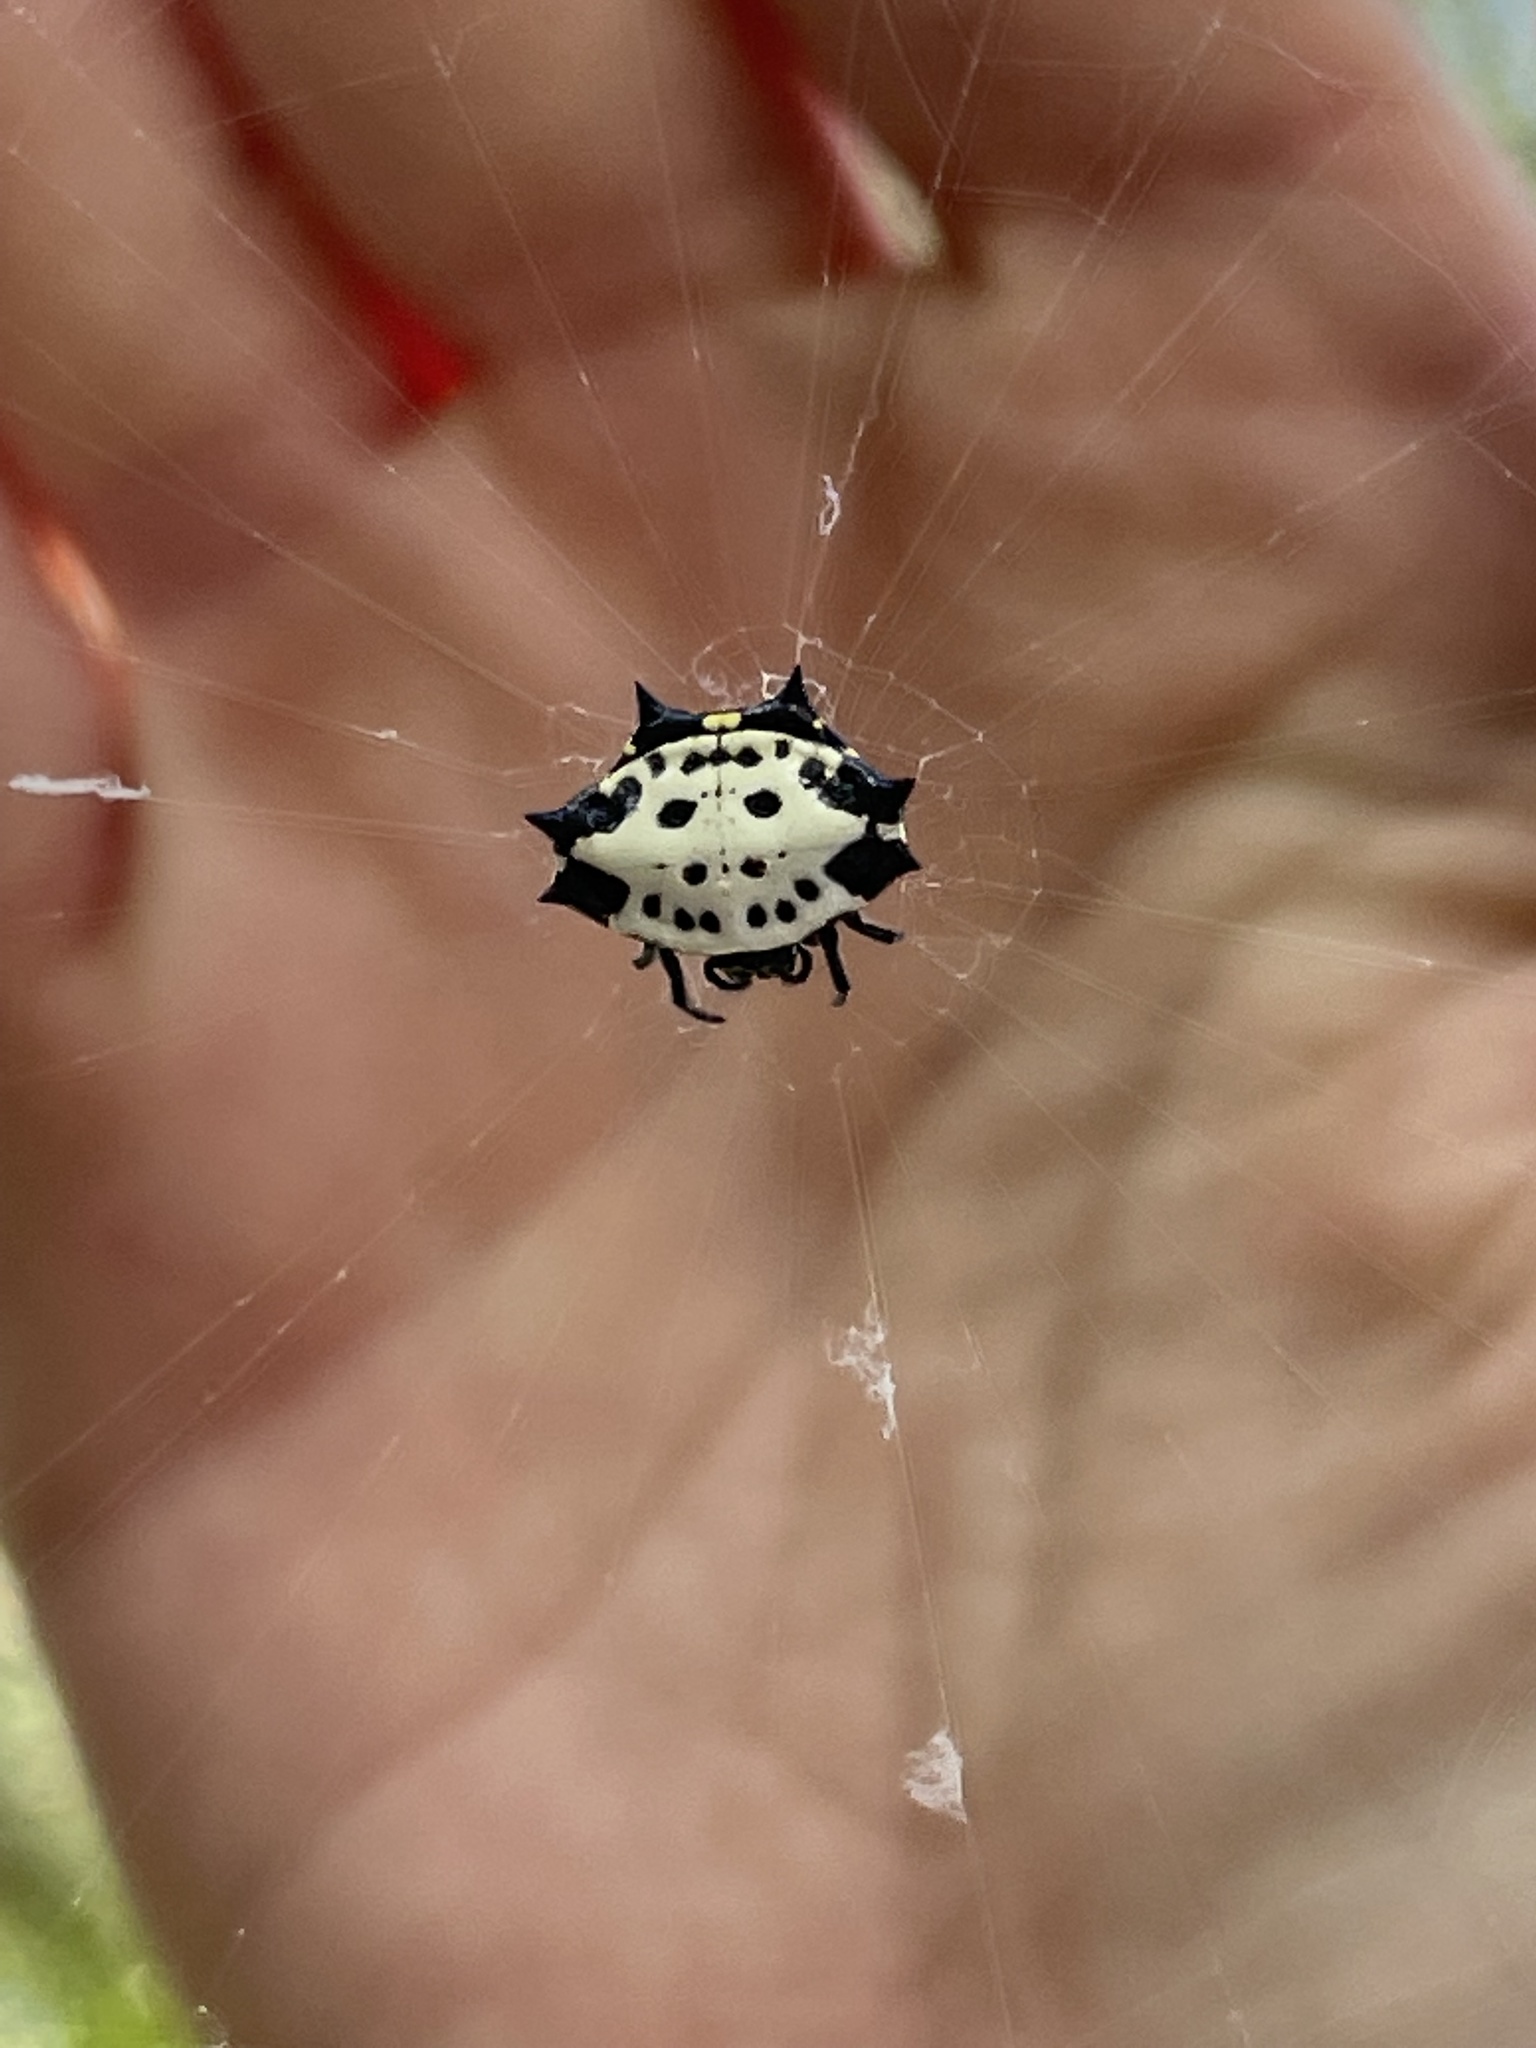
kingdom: Animalia
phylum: Arthropoda
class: Arachnida
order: Araneae
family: Araneidae
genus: Gasteracantha
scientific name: Gasteracantha cancriformis
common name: Orb weavers
